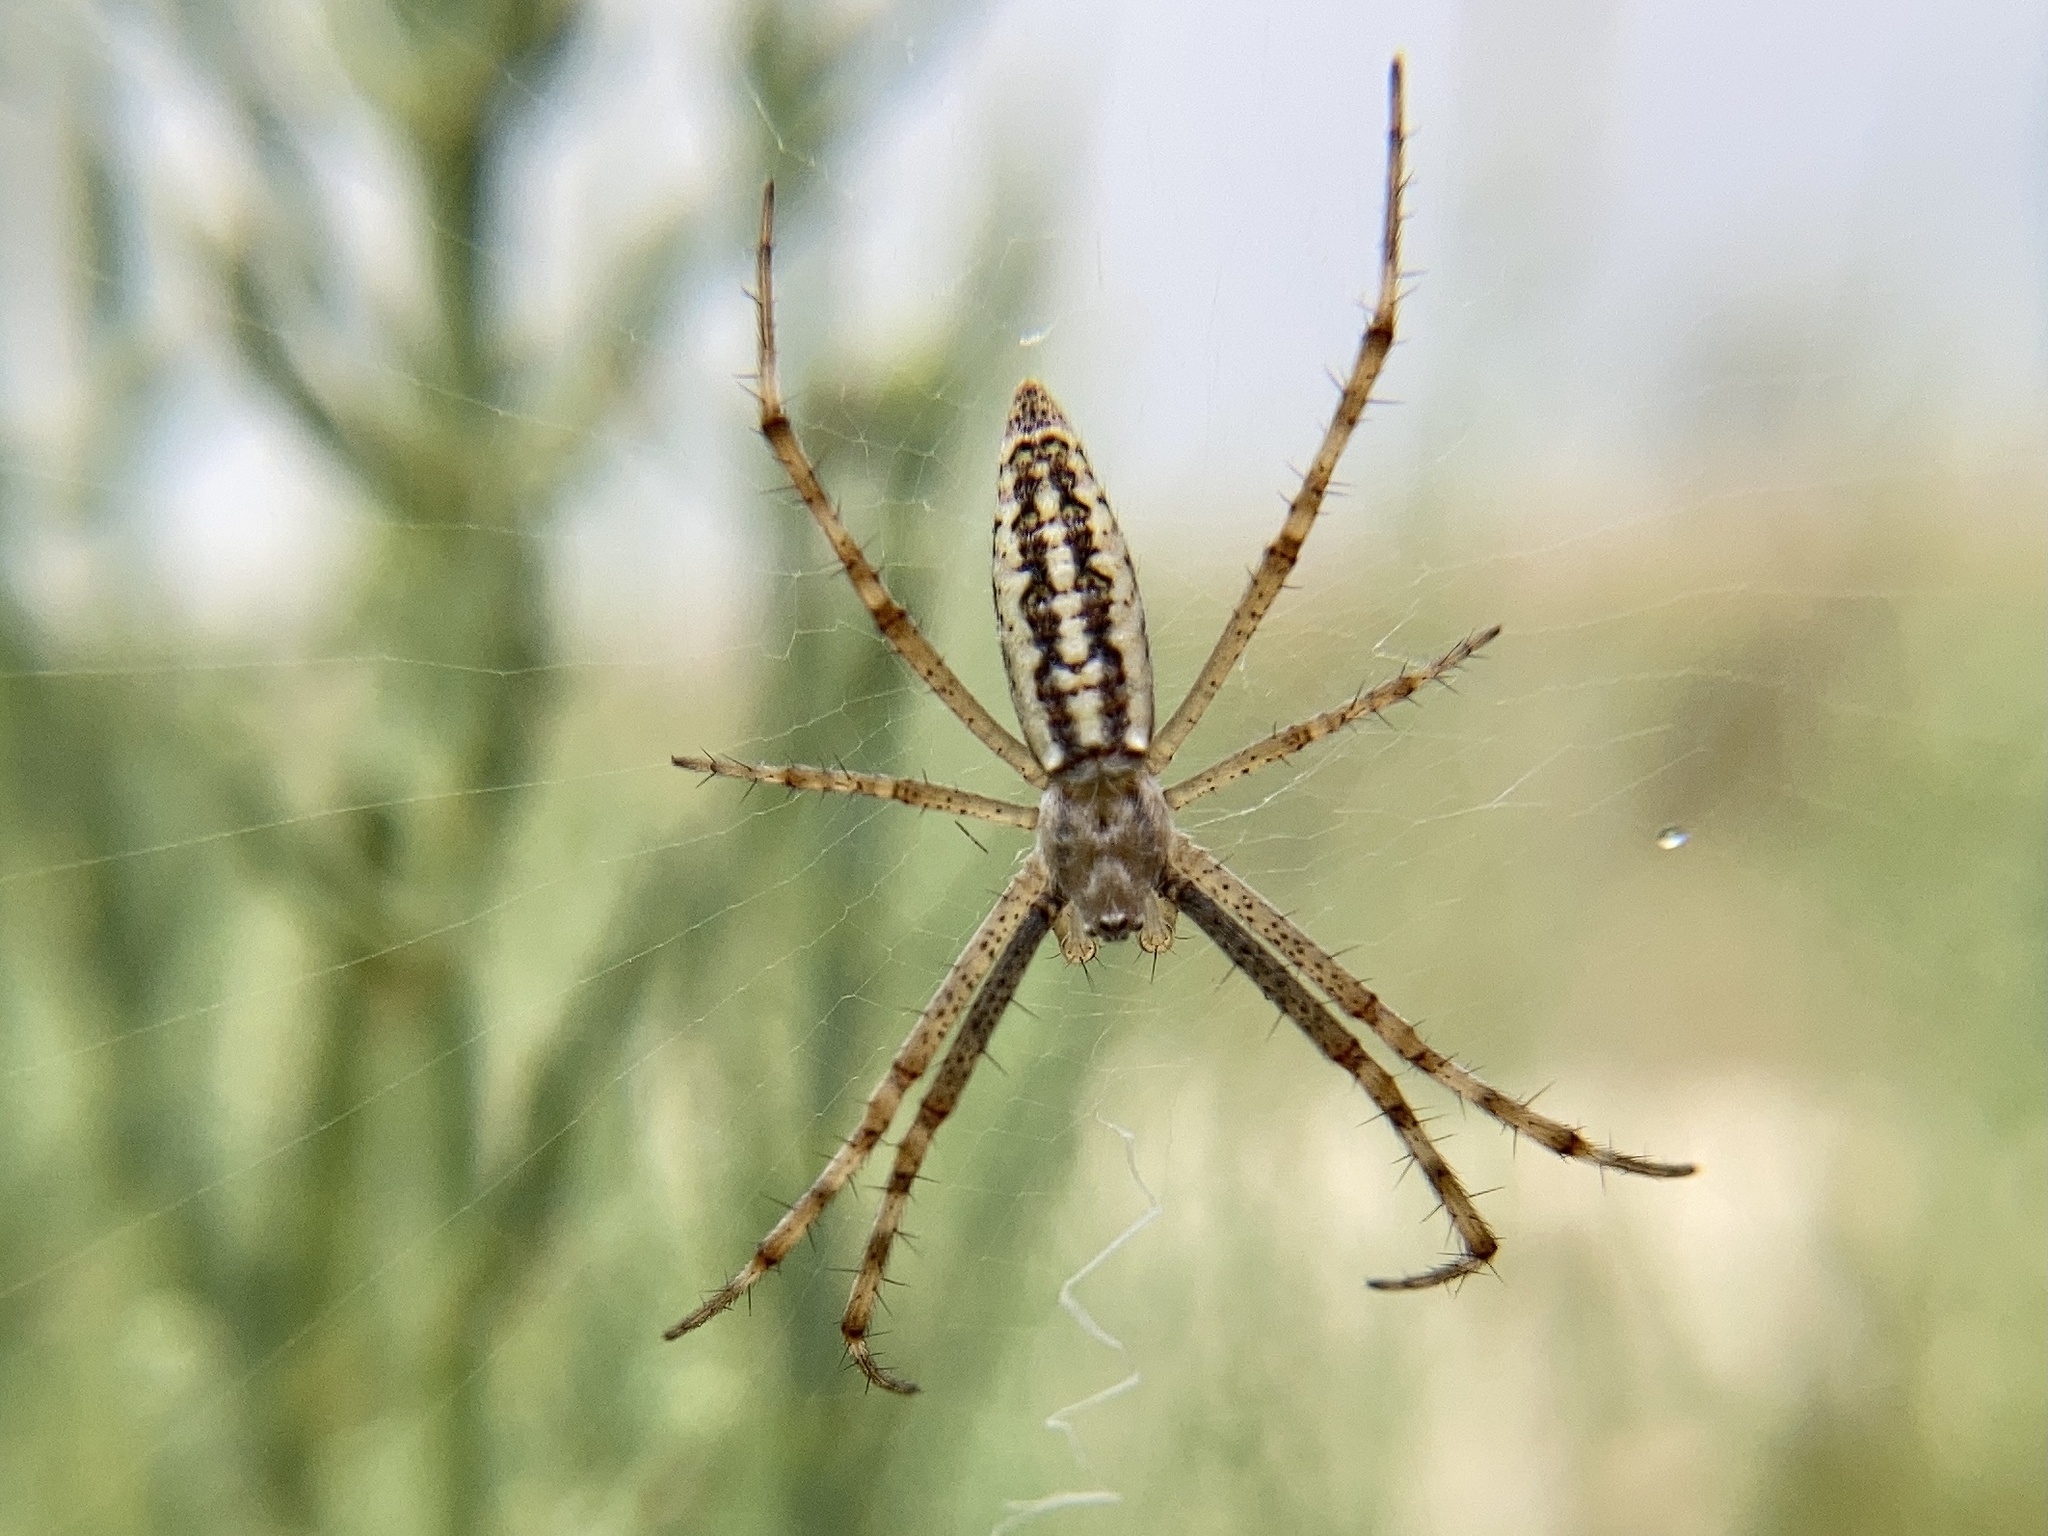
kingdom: Animalia
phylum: Arthropoda
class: Arachnida
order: Araneae
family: Araneidae
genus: Argiope
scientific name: Argiope bruennichi
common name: Wasp spider
